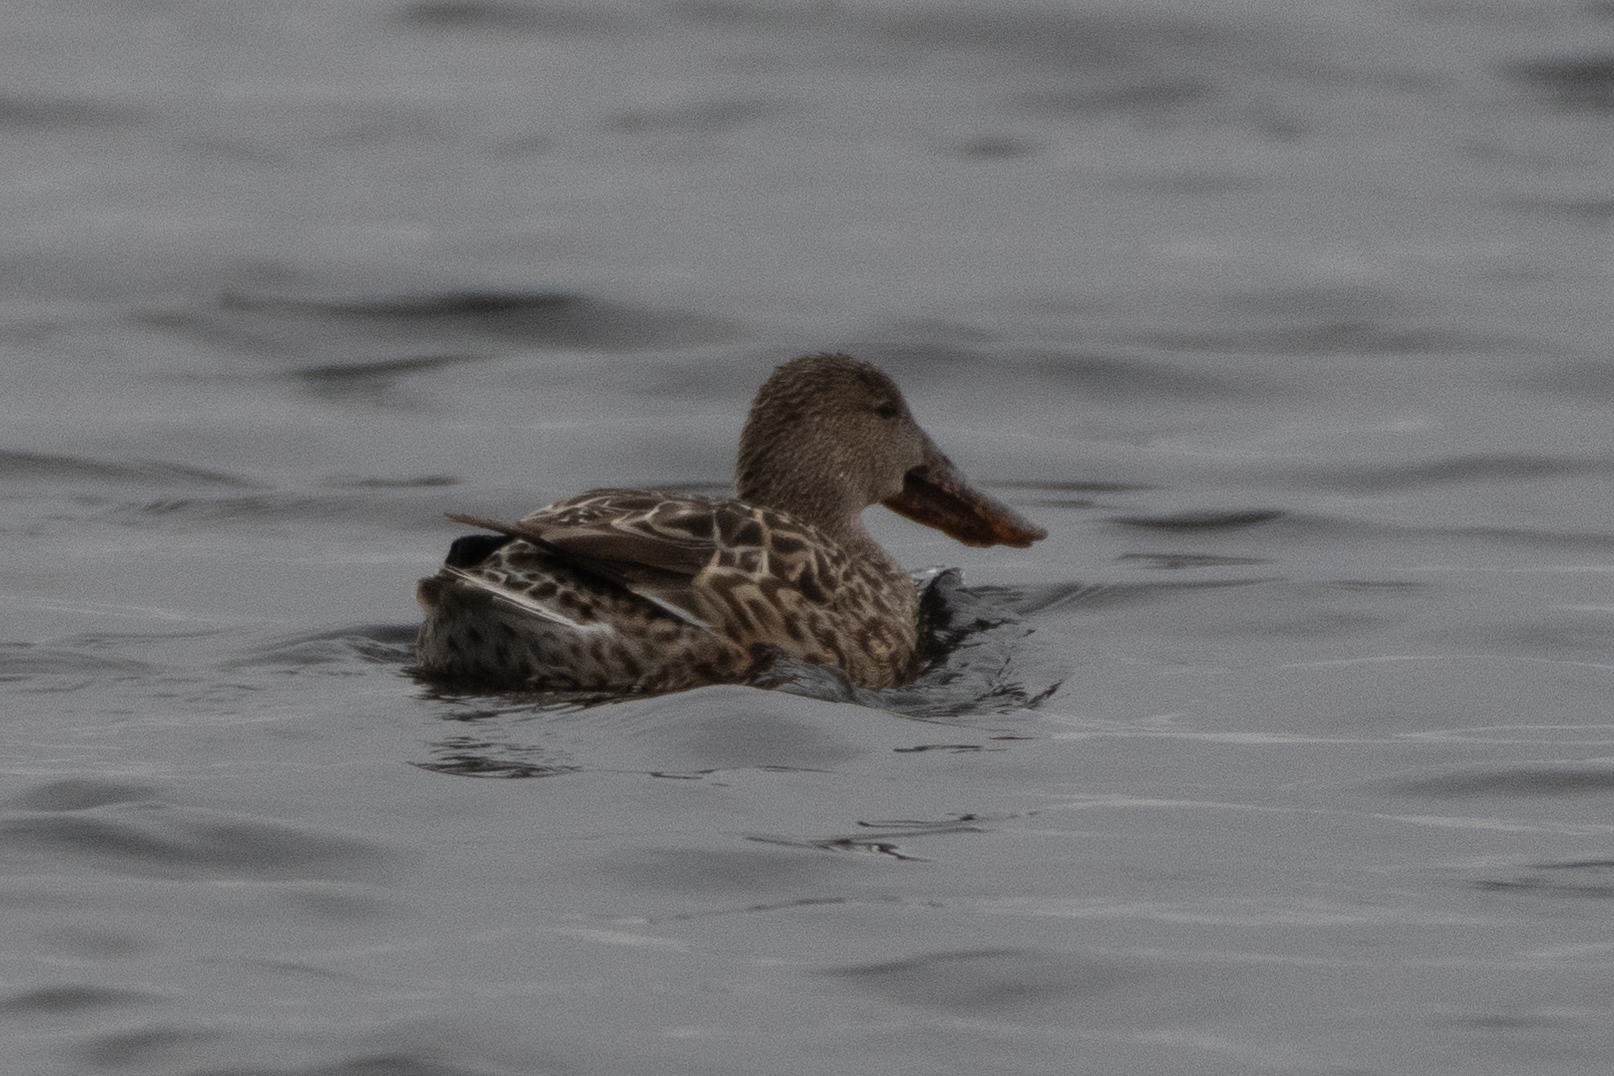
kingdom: Animalia
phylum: Chordata
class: Aves
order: Anseriformes
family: Anatidae
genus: Spatula
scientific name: Spatula clypeata
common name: Northern shoveler
